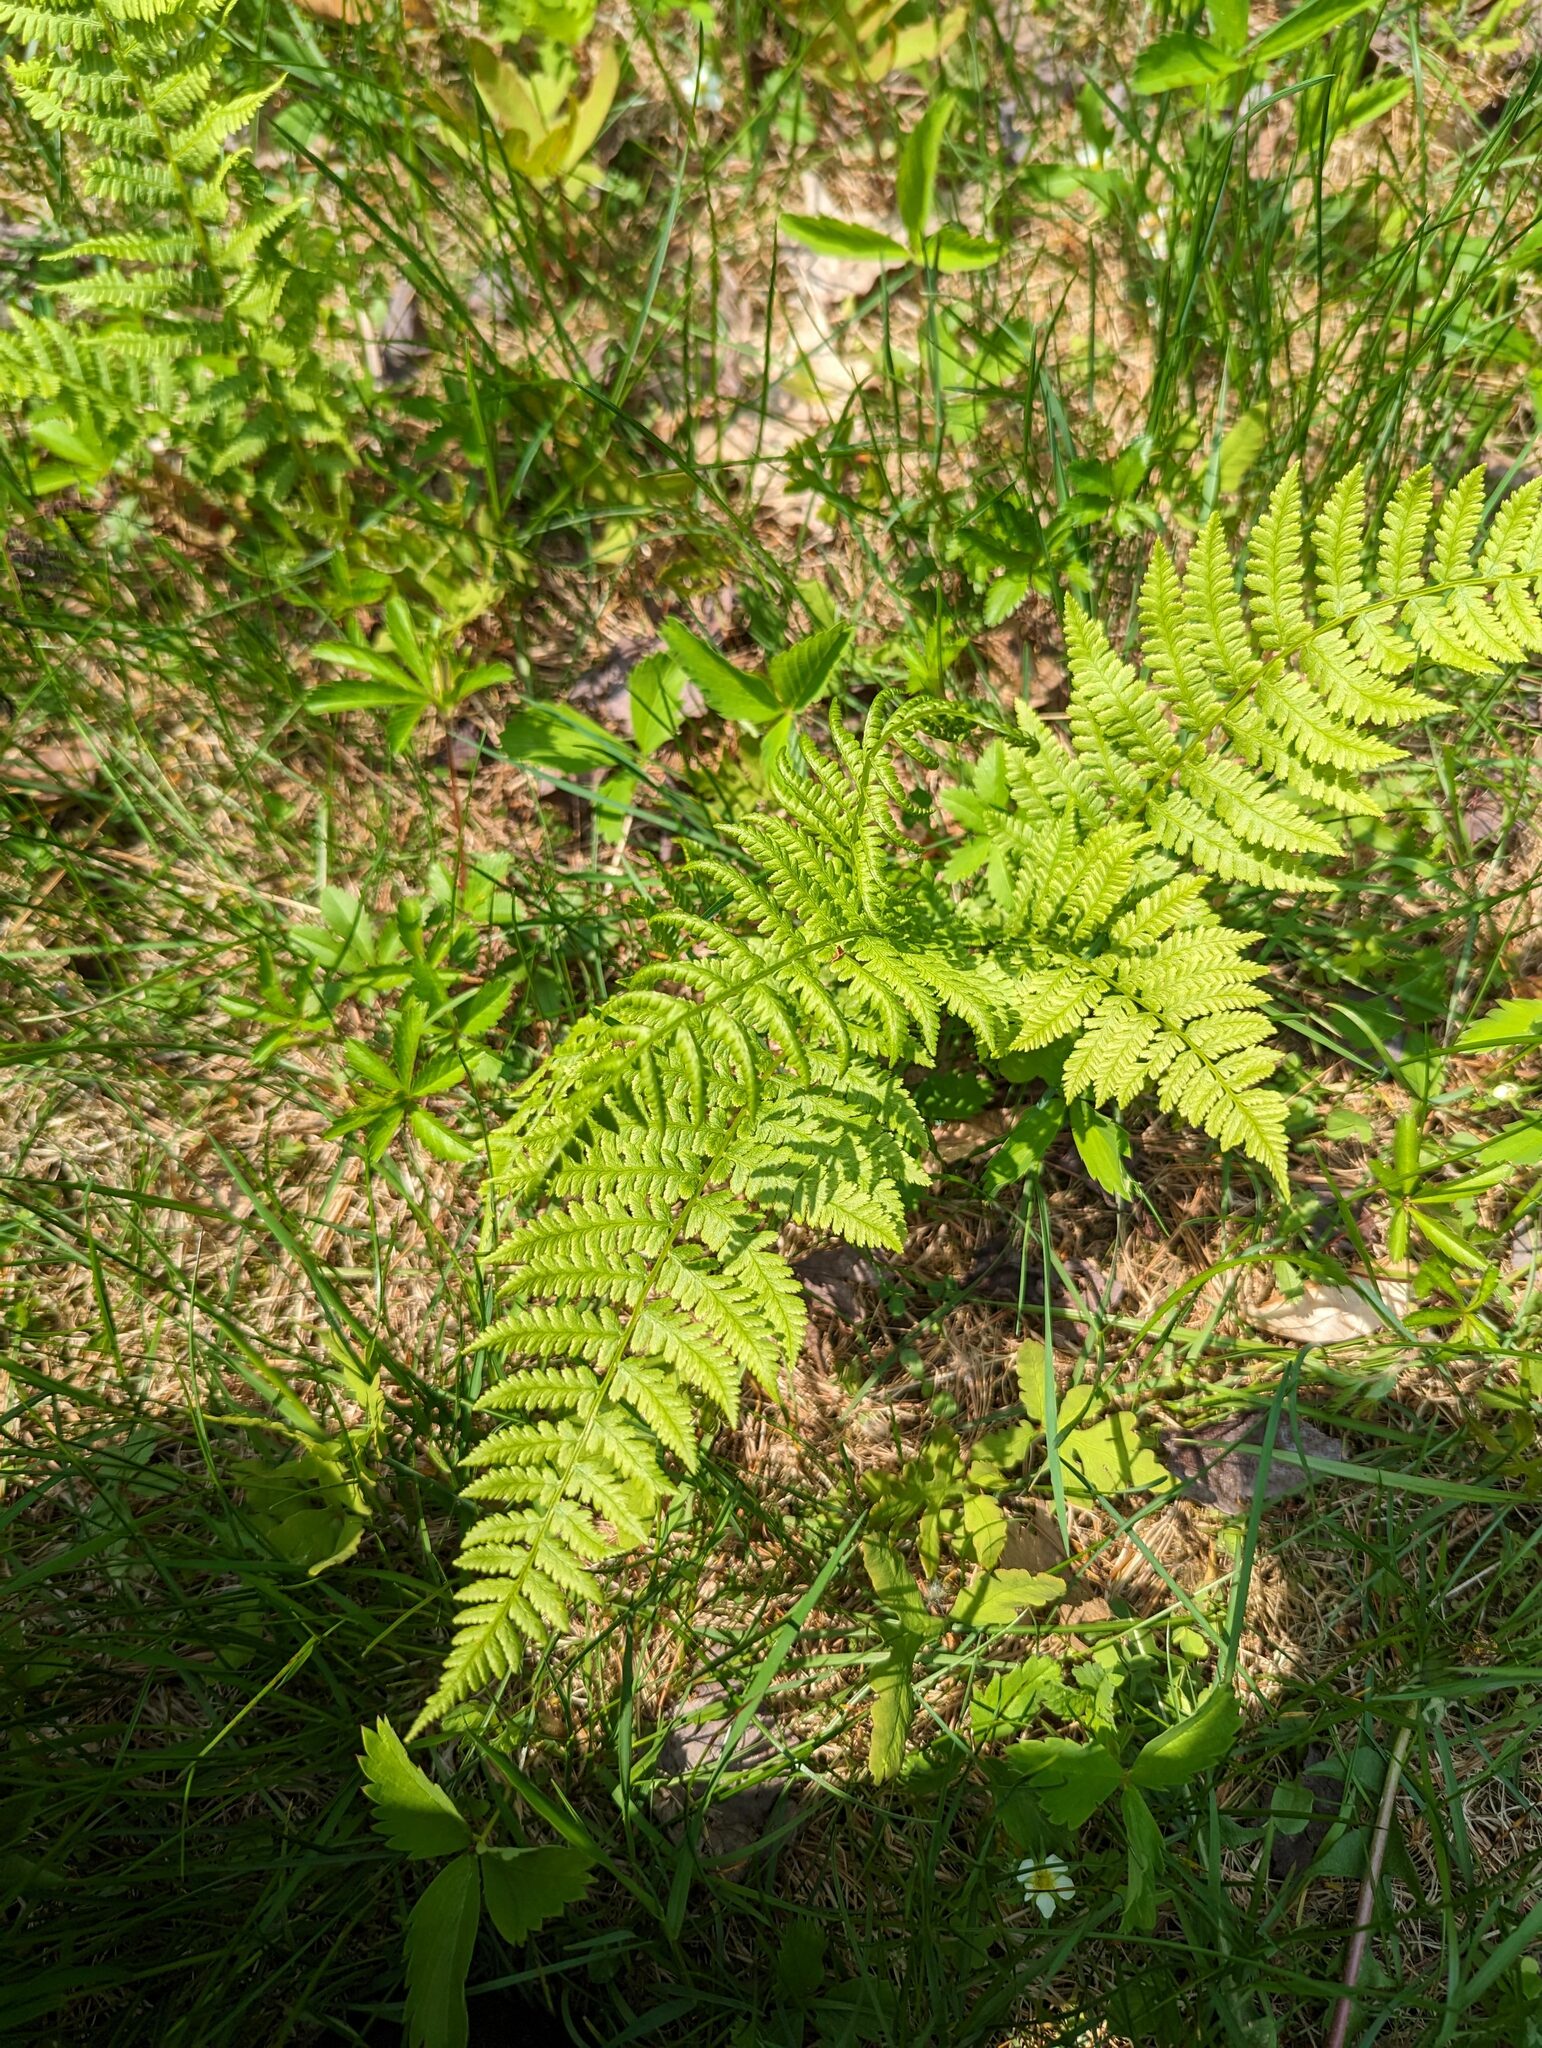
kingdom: Plantae
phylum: Tracheophyta
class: Polypodiopsida
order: Polypodiales
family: Athyriaceae
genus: Athyrium
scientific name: Athyrium angustum
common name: Northern lady fern
